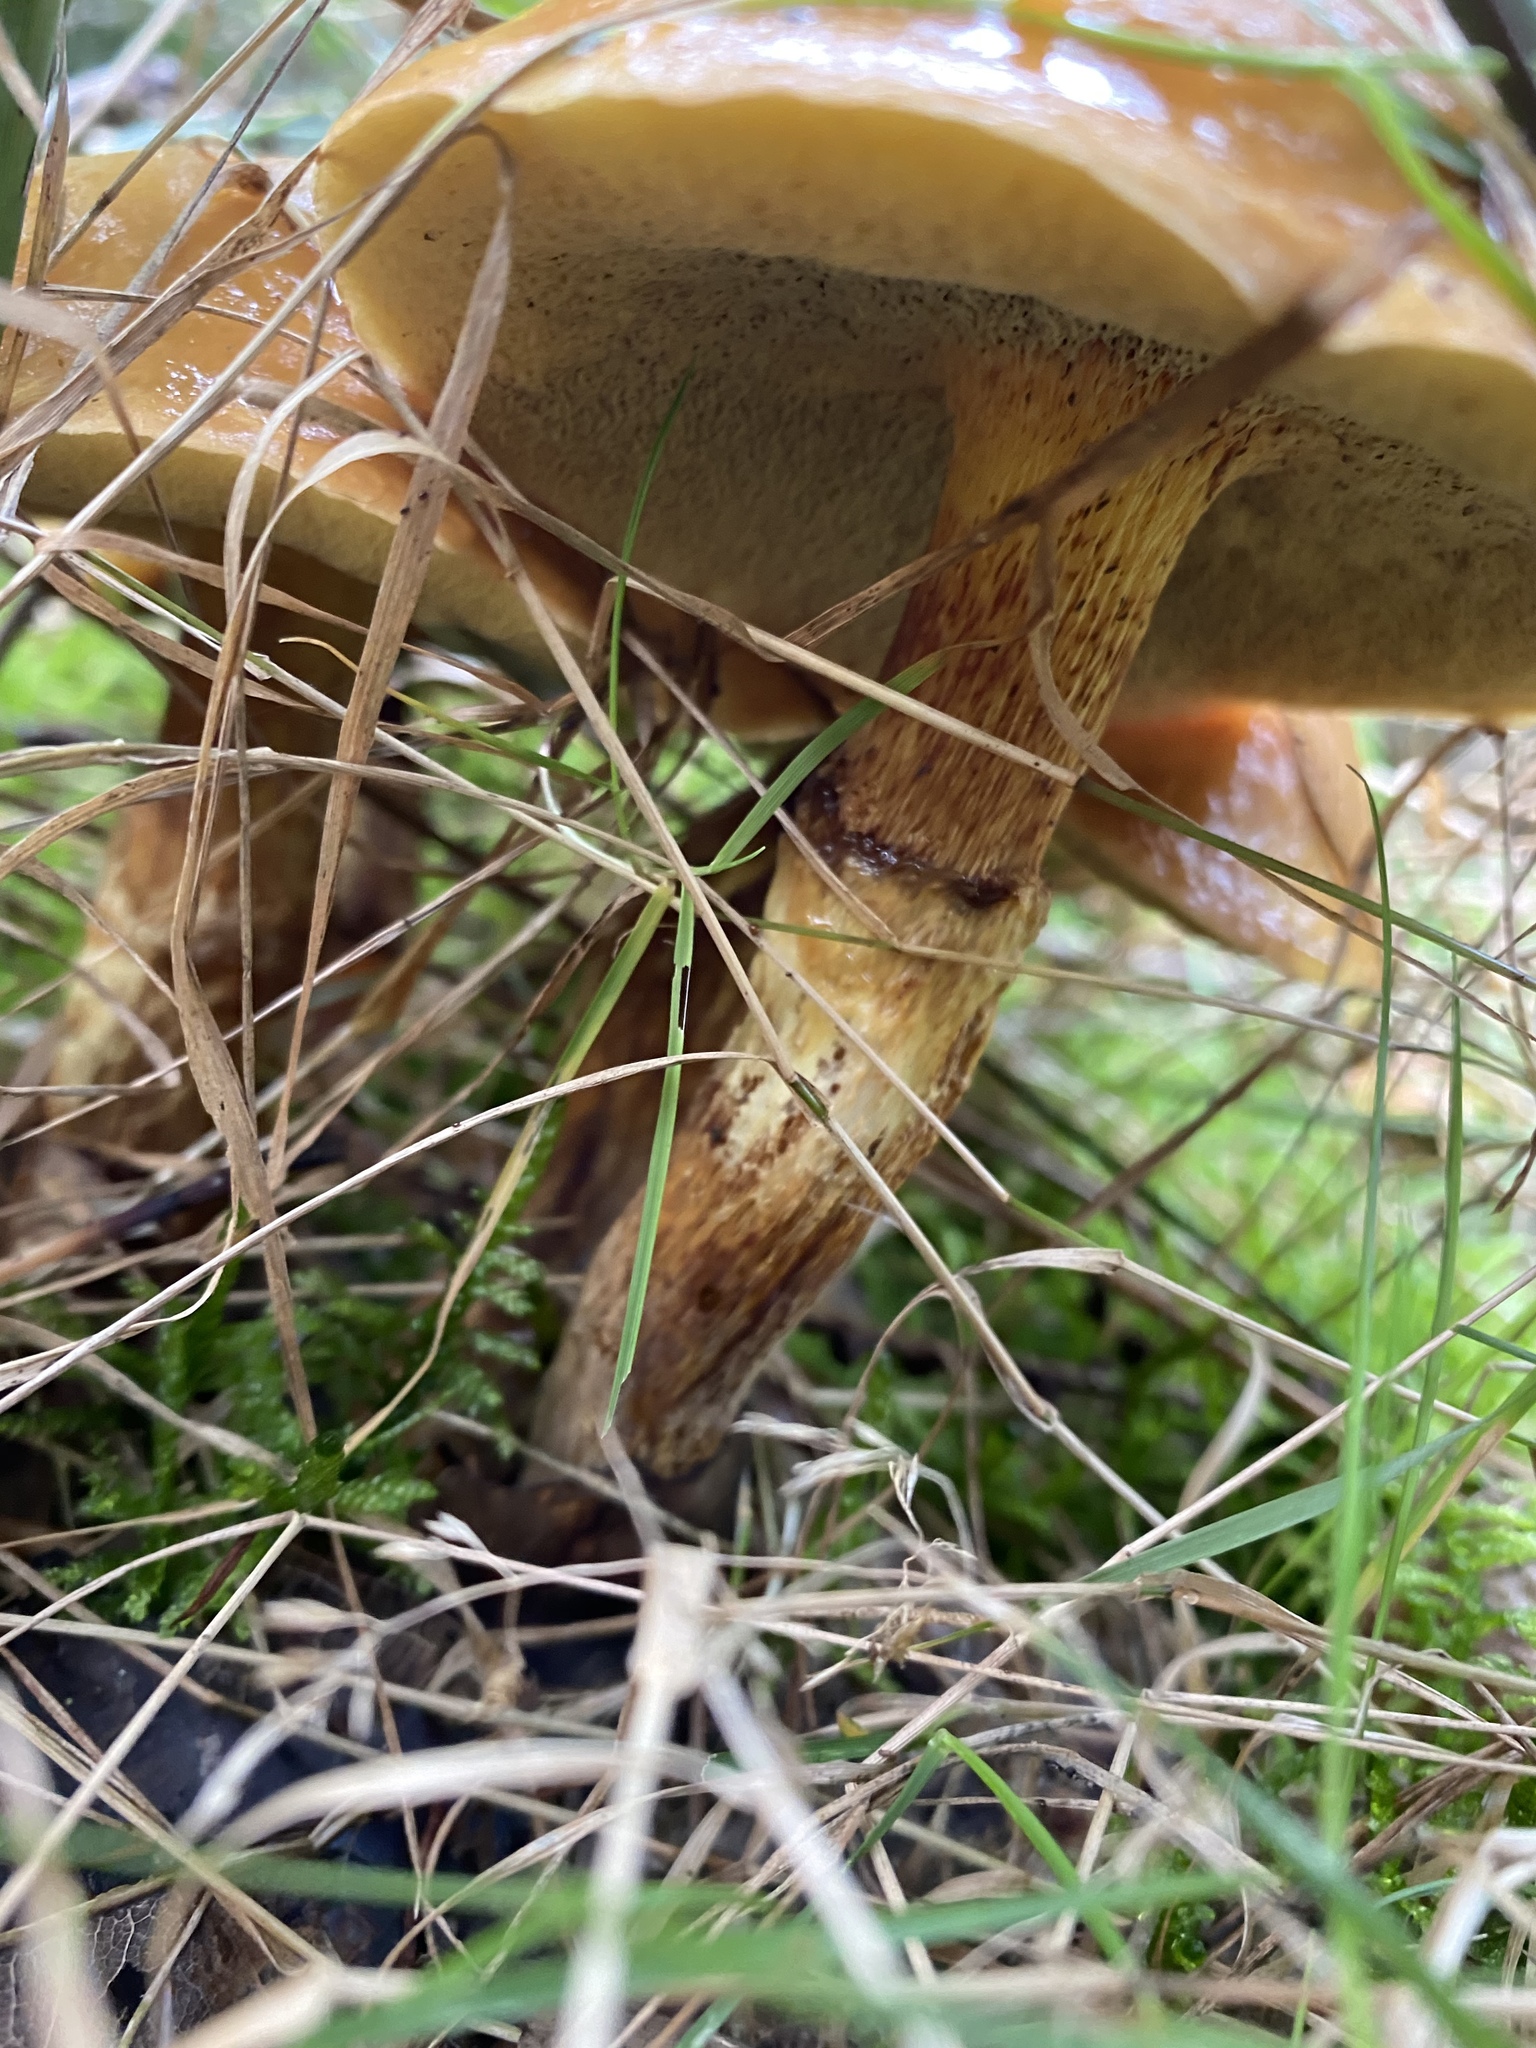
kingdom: Fungi
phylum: Basidiomycota
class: Agaricomycetes
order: Boletales
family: Suillaceae
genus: Suillus
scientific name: Suillus grevillei
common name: Larch bolete
